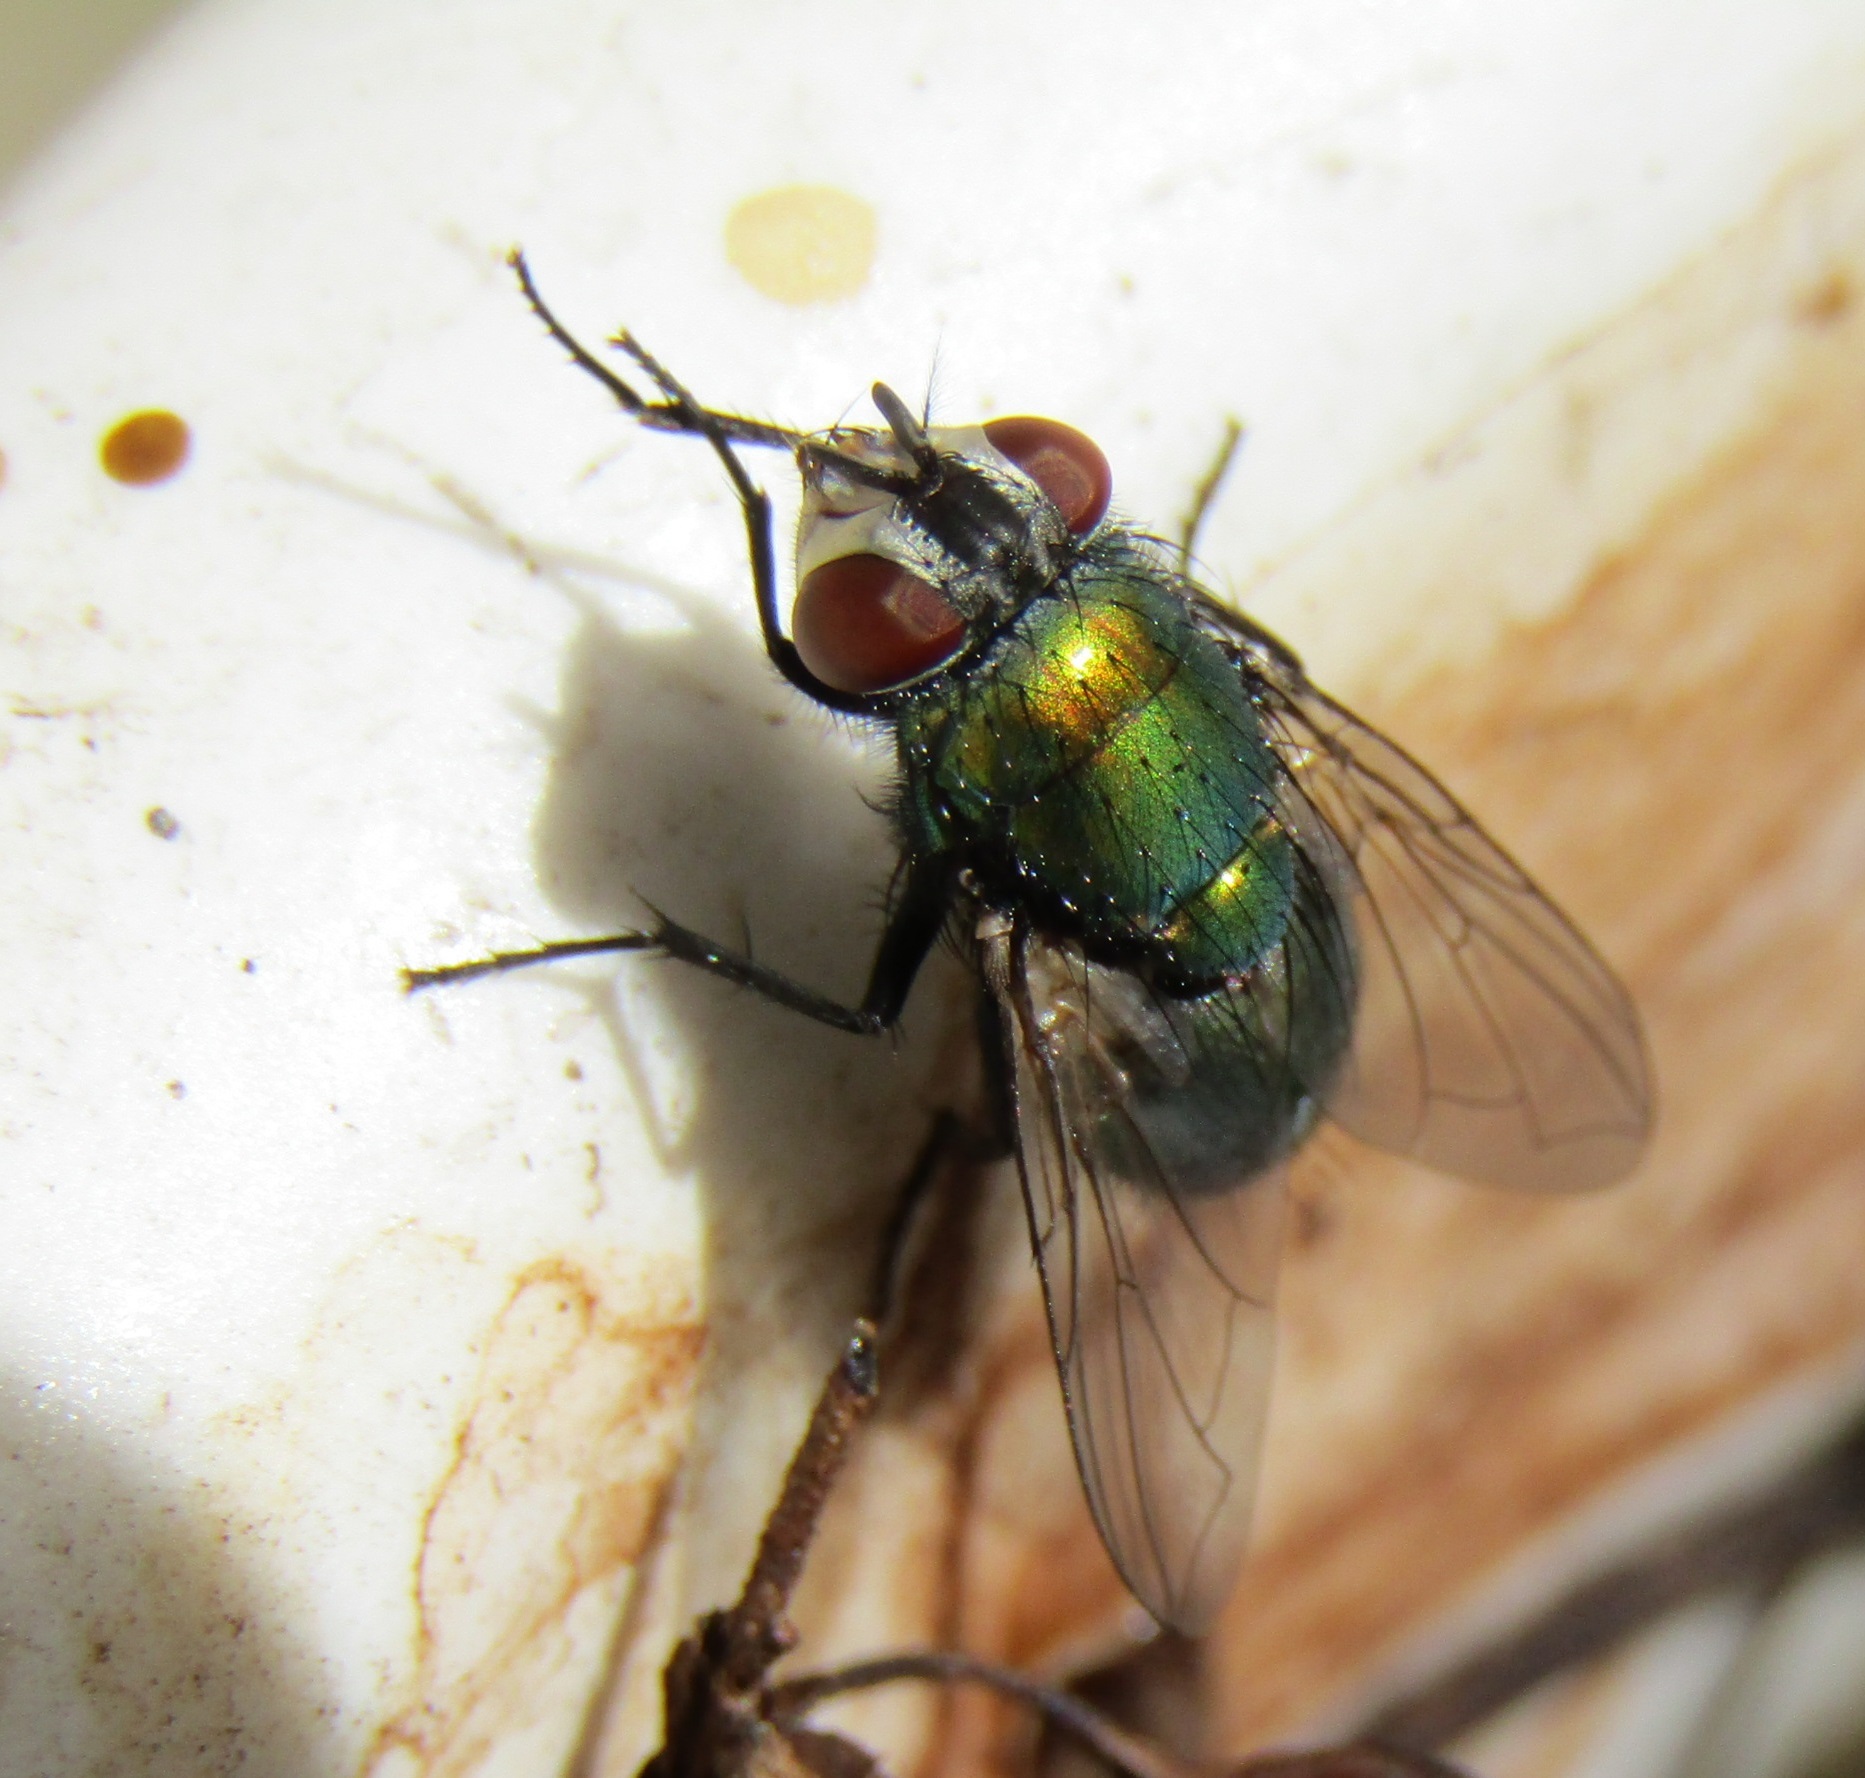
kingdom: Animalia
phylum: Arthropoda
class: Insecta
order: Diptera
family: Calliphoridae
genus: Lucilia
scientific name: Lucilia sericata
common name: Blow fly
